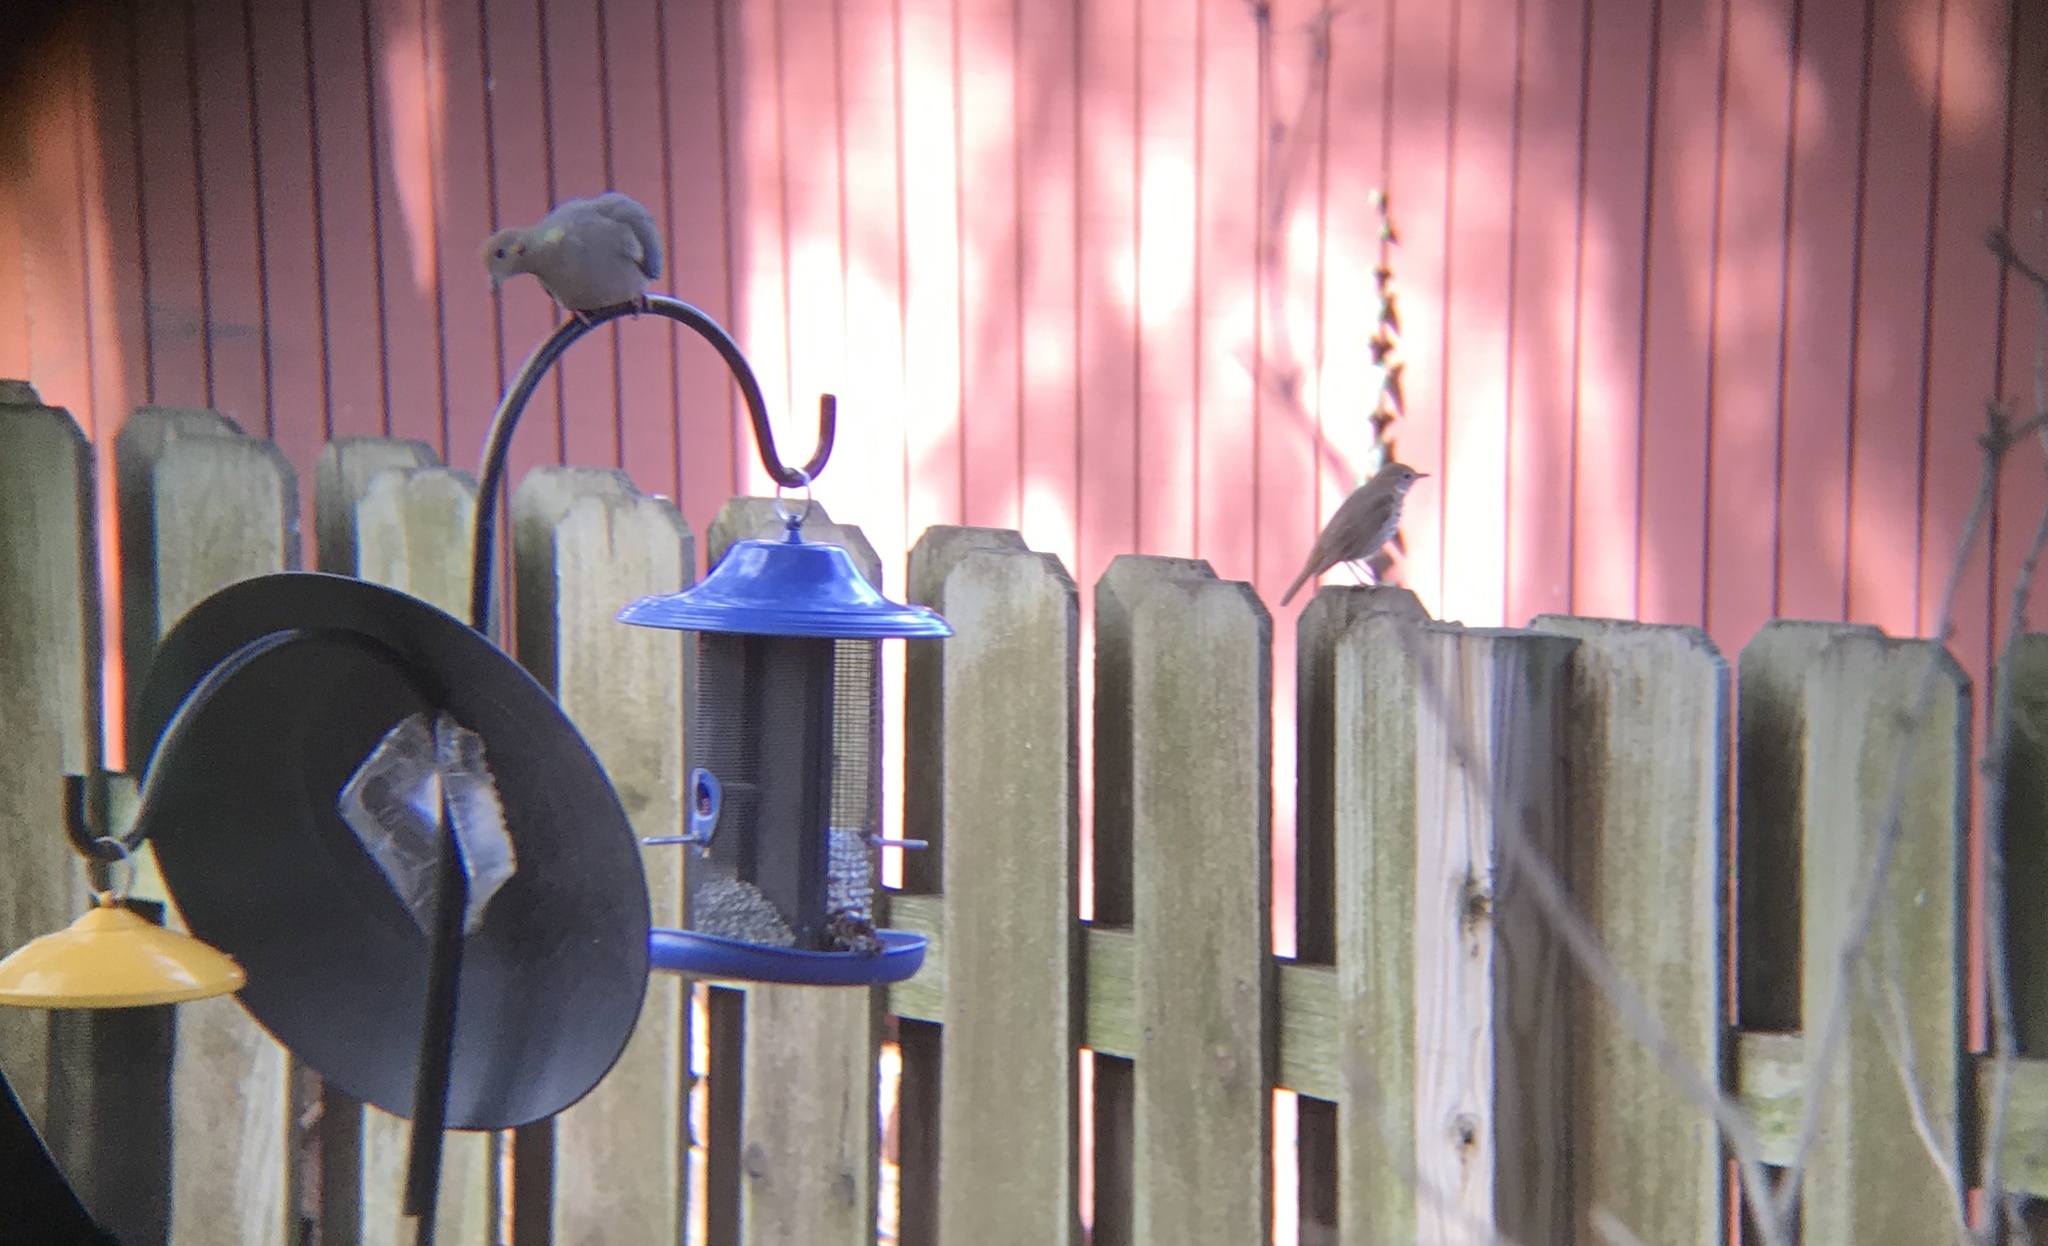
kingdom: Animalia
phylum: Chordata
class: Aves
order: Passeriformes
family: Turdidae
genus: Catharus
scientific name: Catharus guttatus
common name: Hermit thrush
